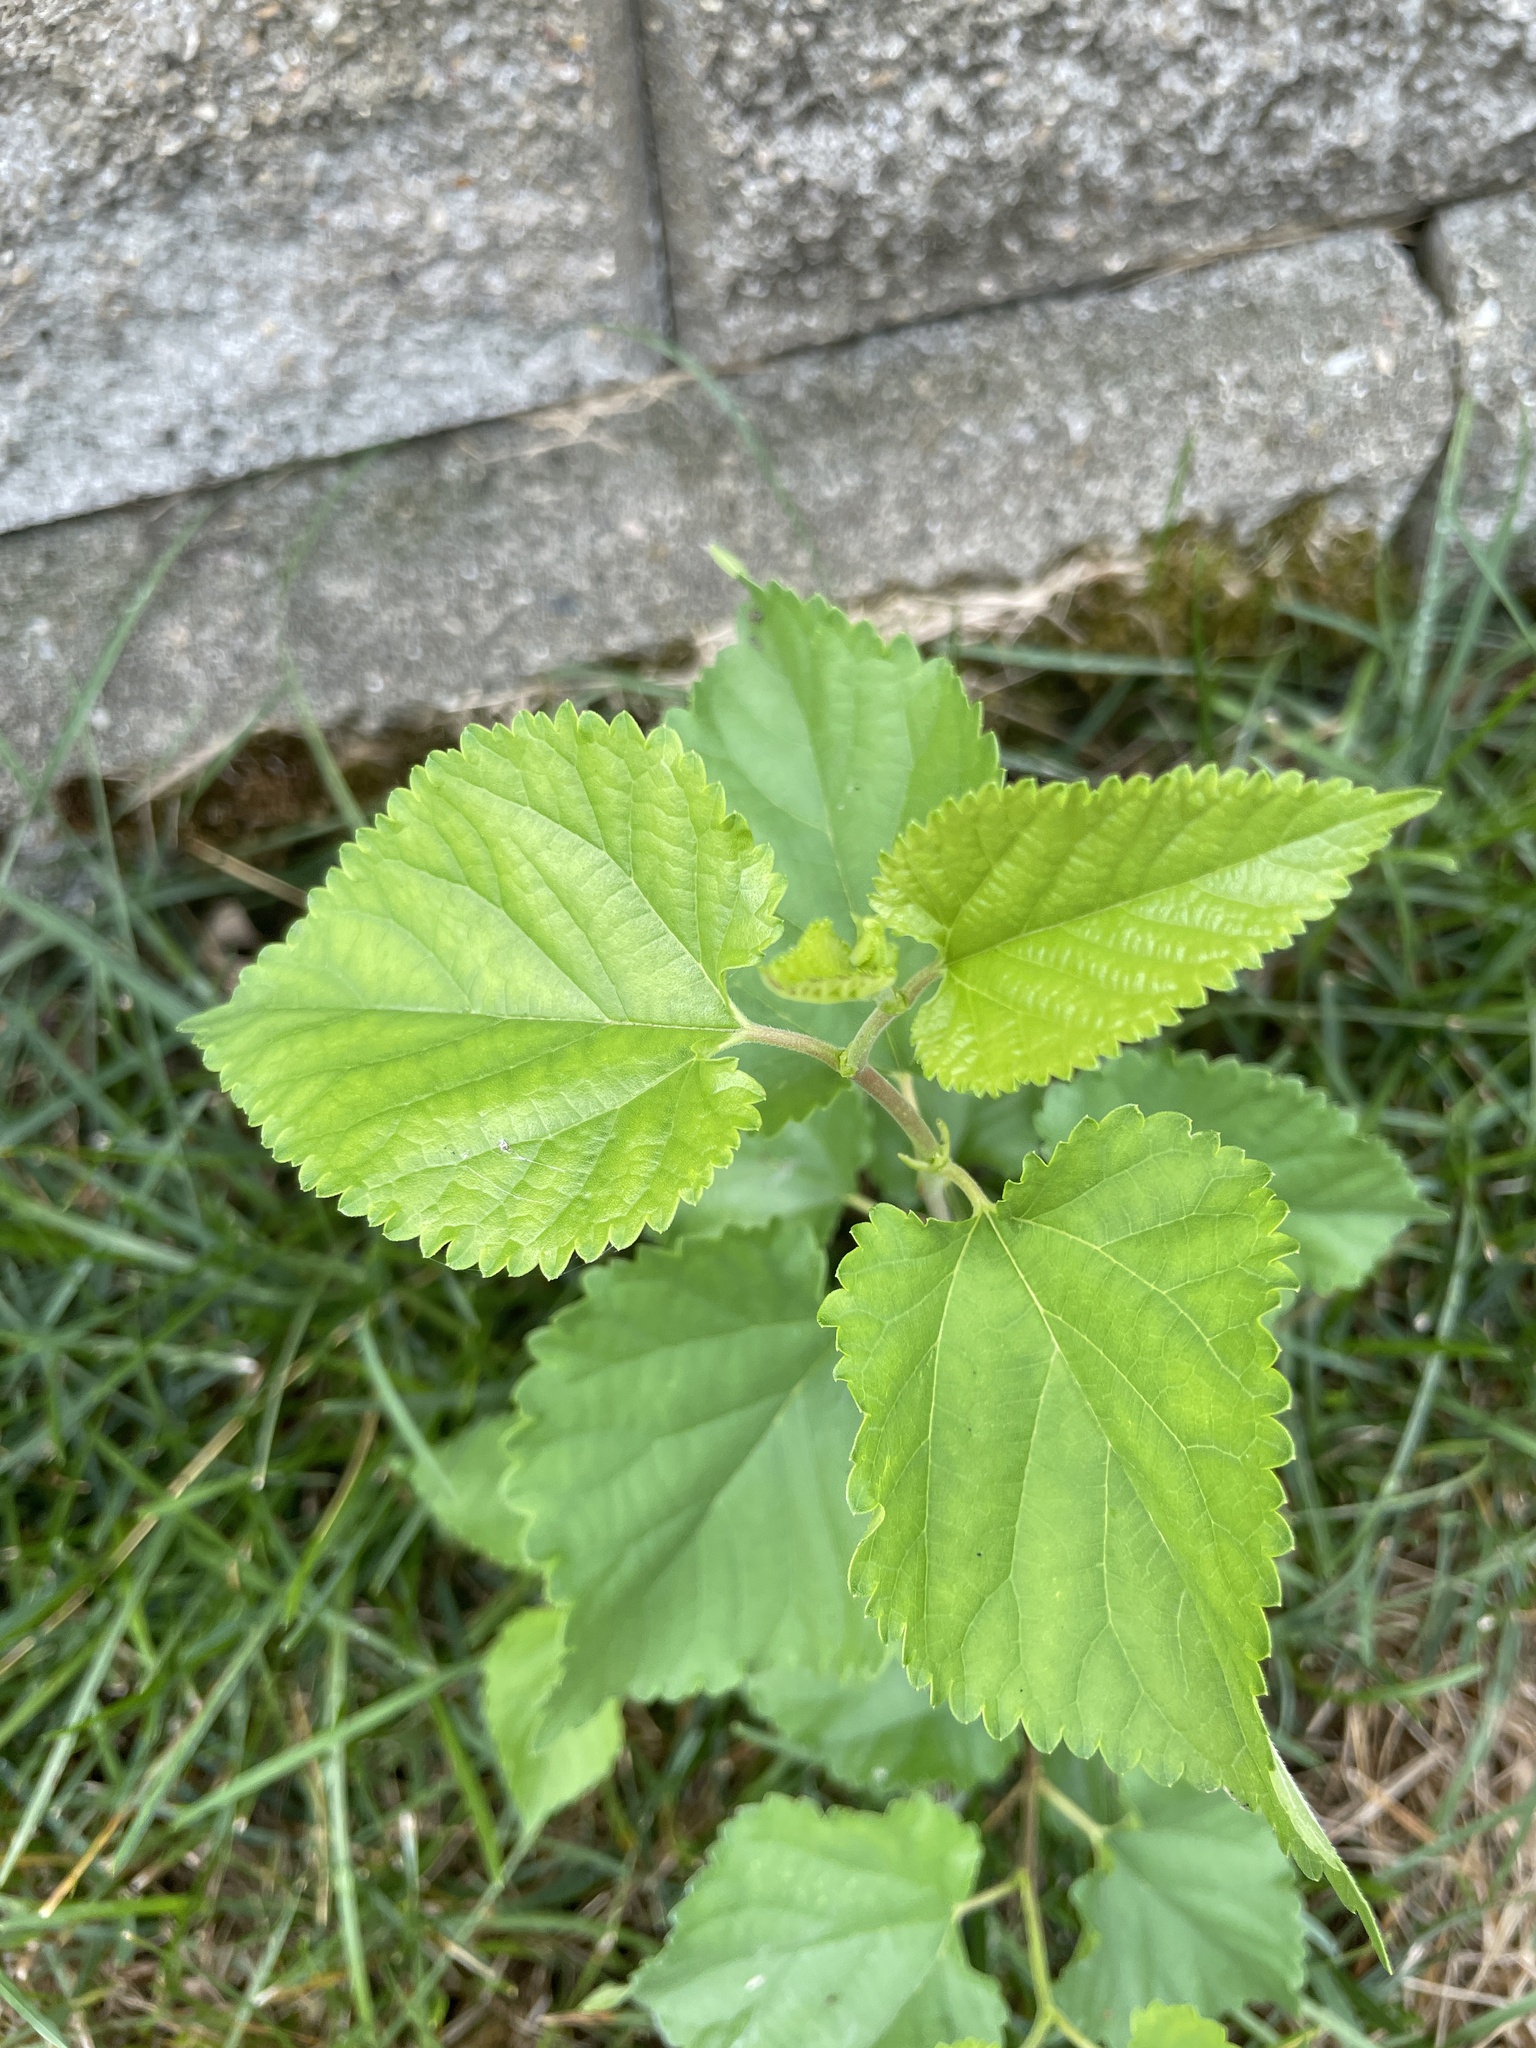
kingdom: Plantae
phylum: Tracheophyta
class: Magnoliopsida
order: Rosales
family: Moraceae
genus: Morus
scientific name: Morus alba
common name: White mulberry
